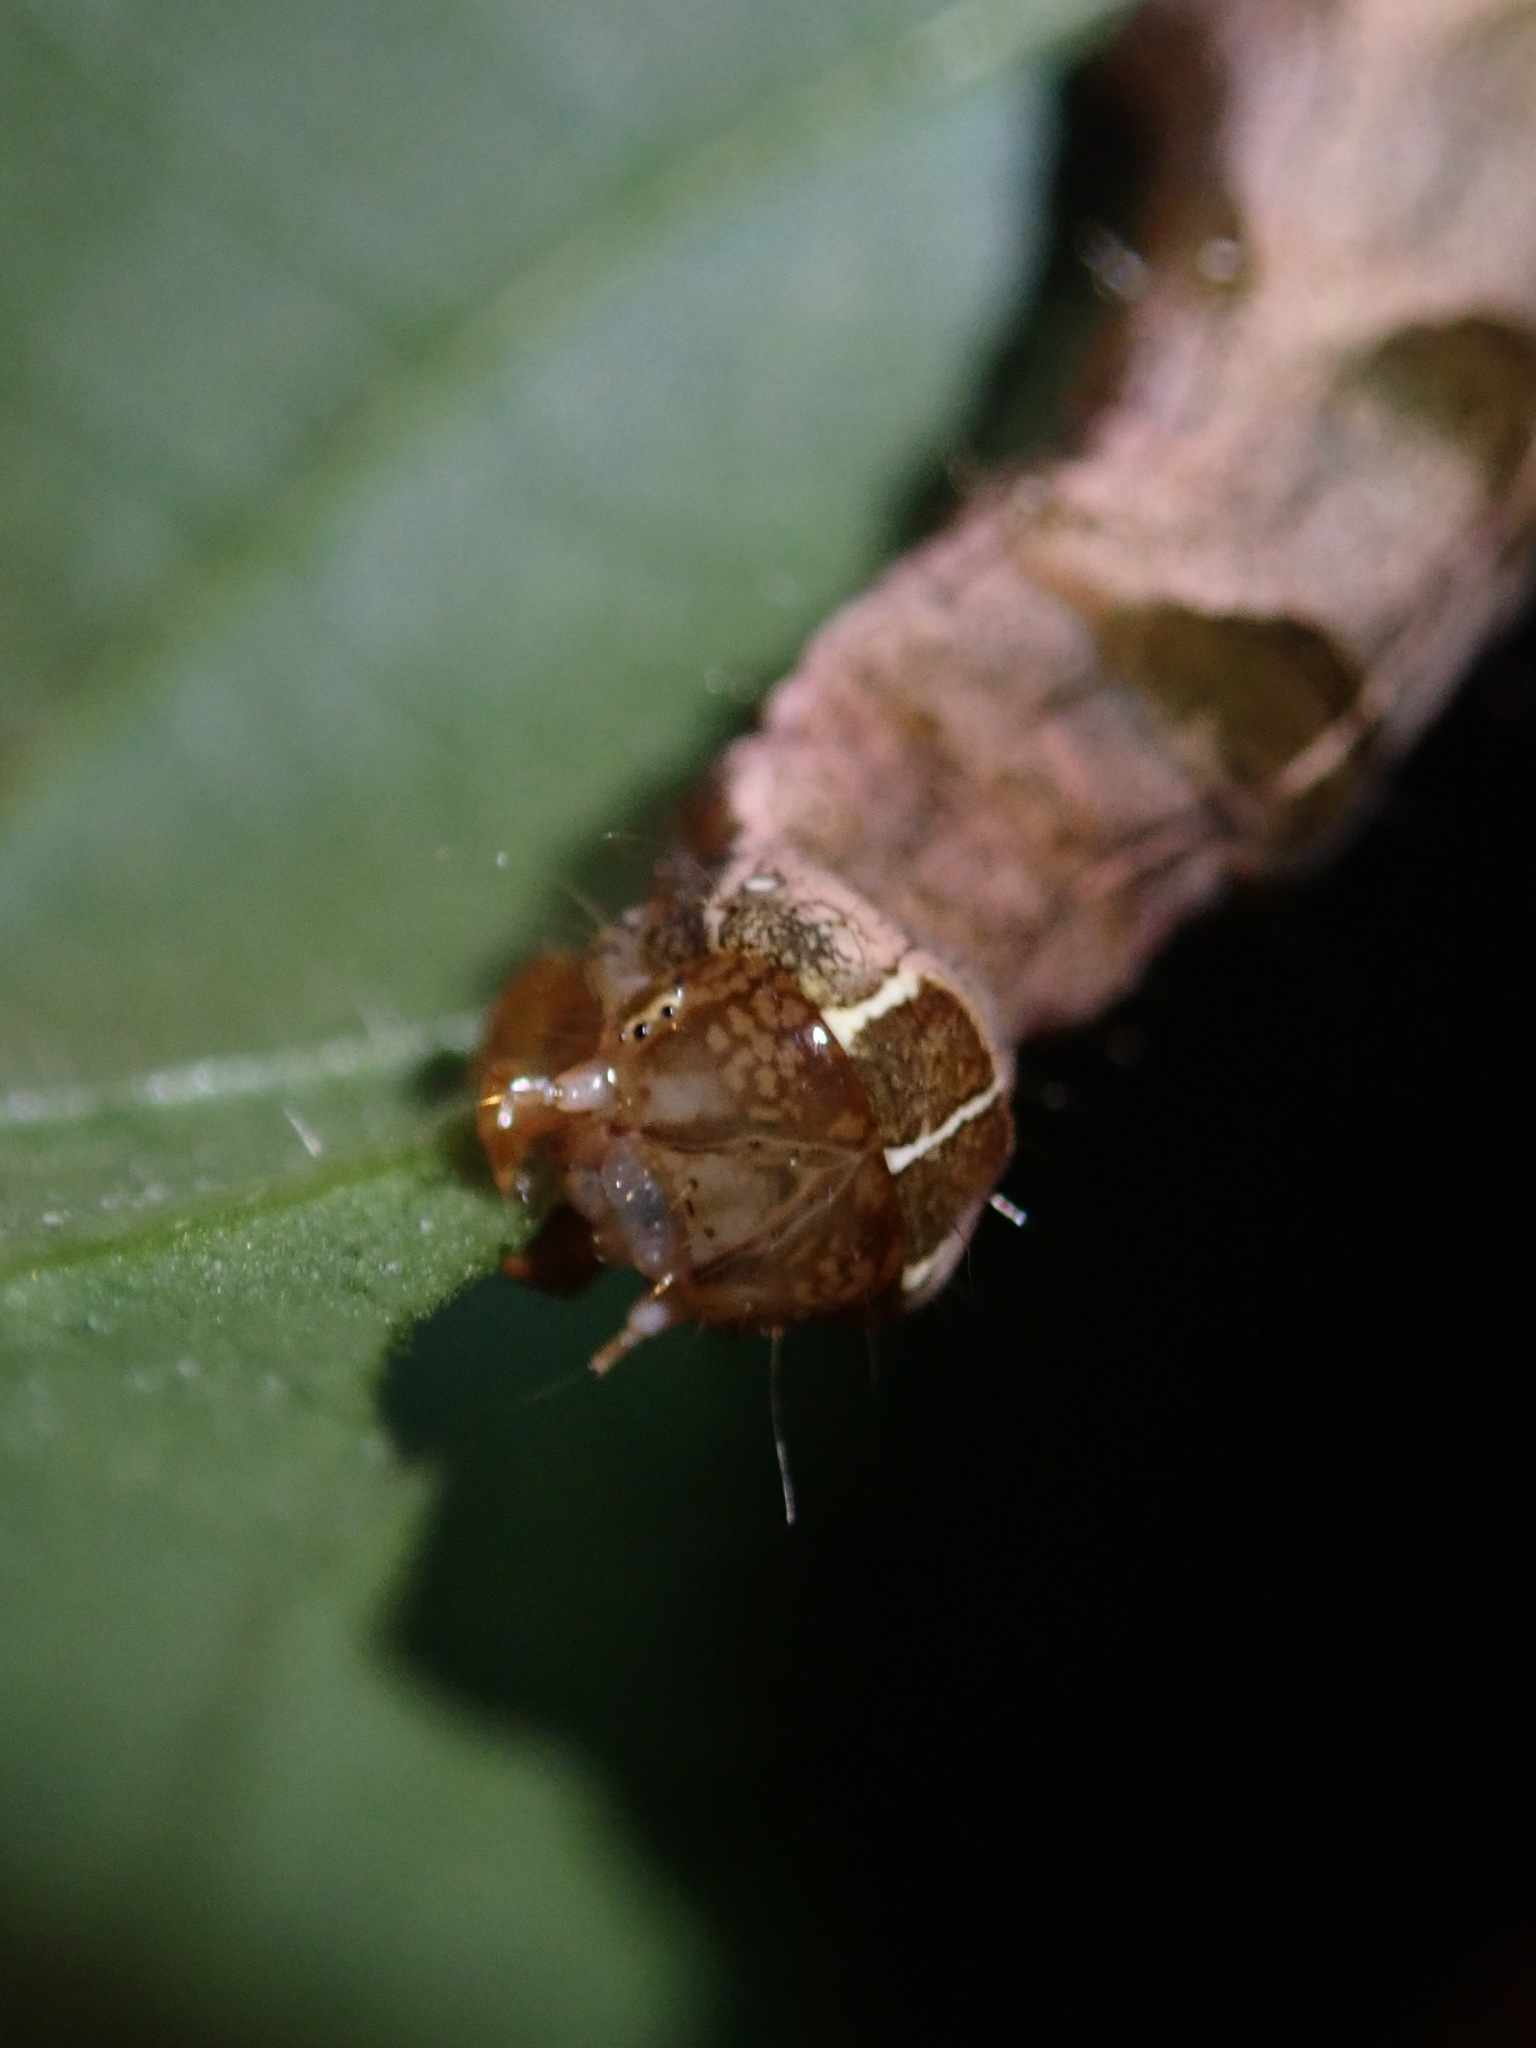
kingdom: Animalia
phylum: Arthropoda
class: Insecta
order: Lepidoptera
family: Noctuidae
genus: Melanchra
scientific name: Melanchra persicariae
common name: Dot moth
